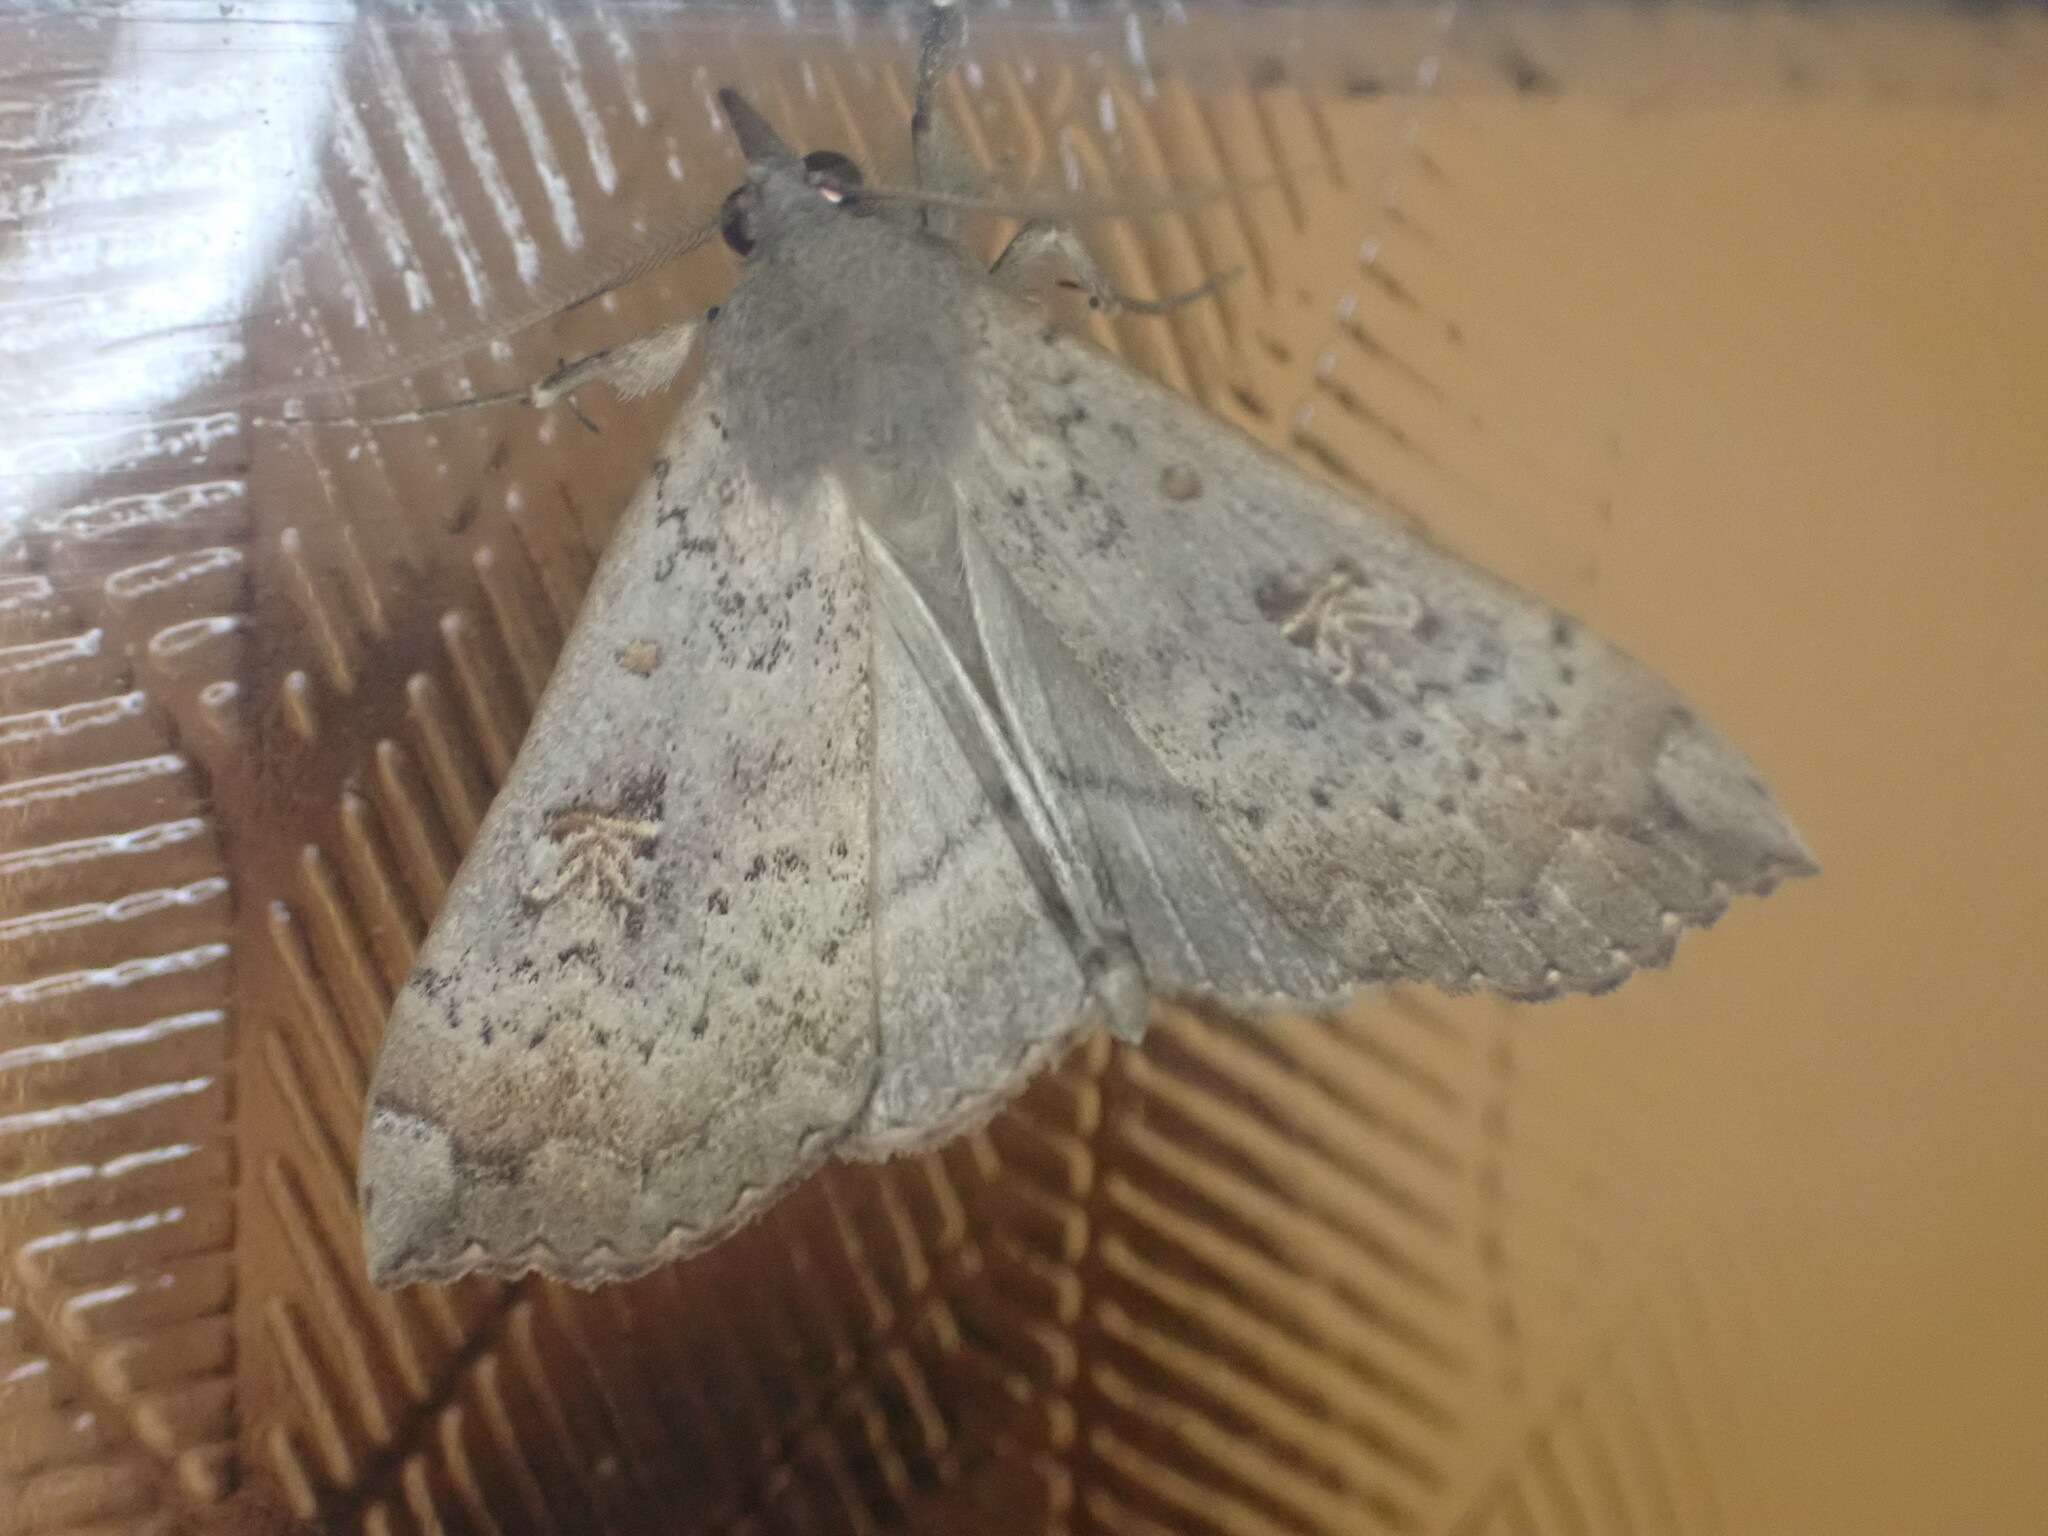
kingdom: Animalia
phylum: Arthropoda
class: Insecta
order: Lepidoptera
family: Erebidae
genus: Rhapsa
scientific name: Rhapsa scotosialis
